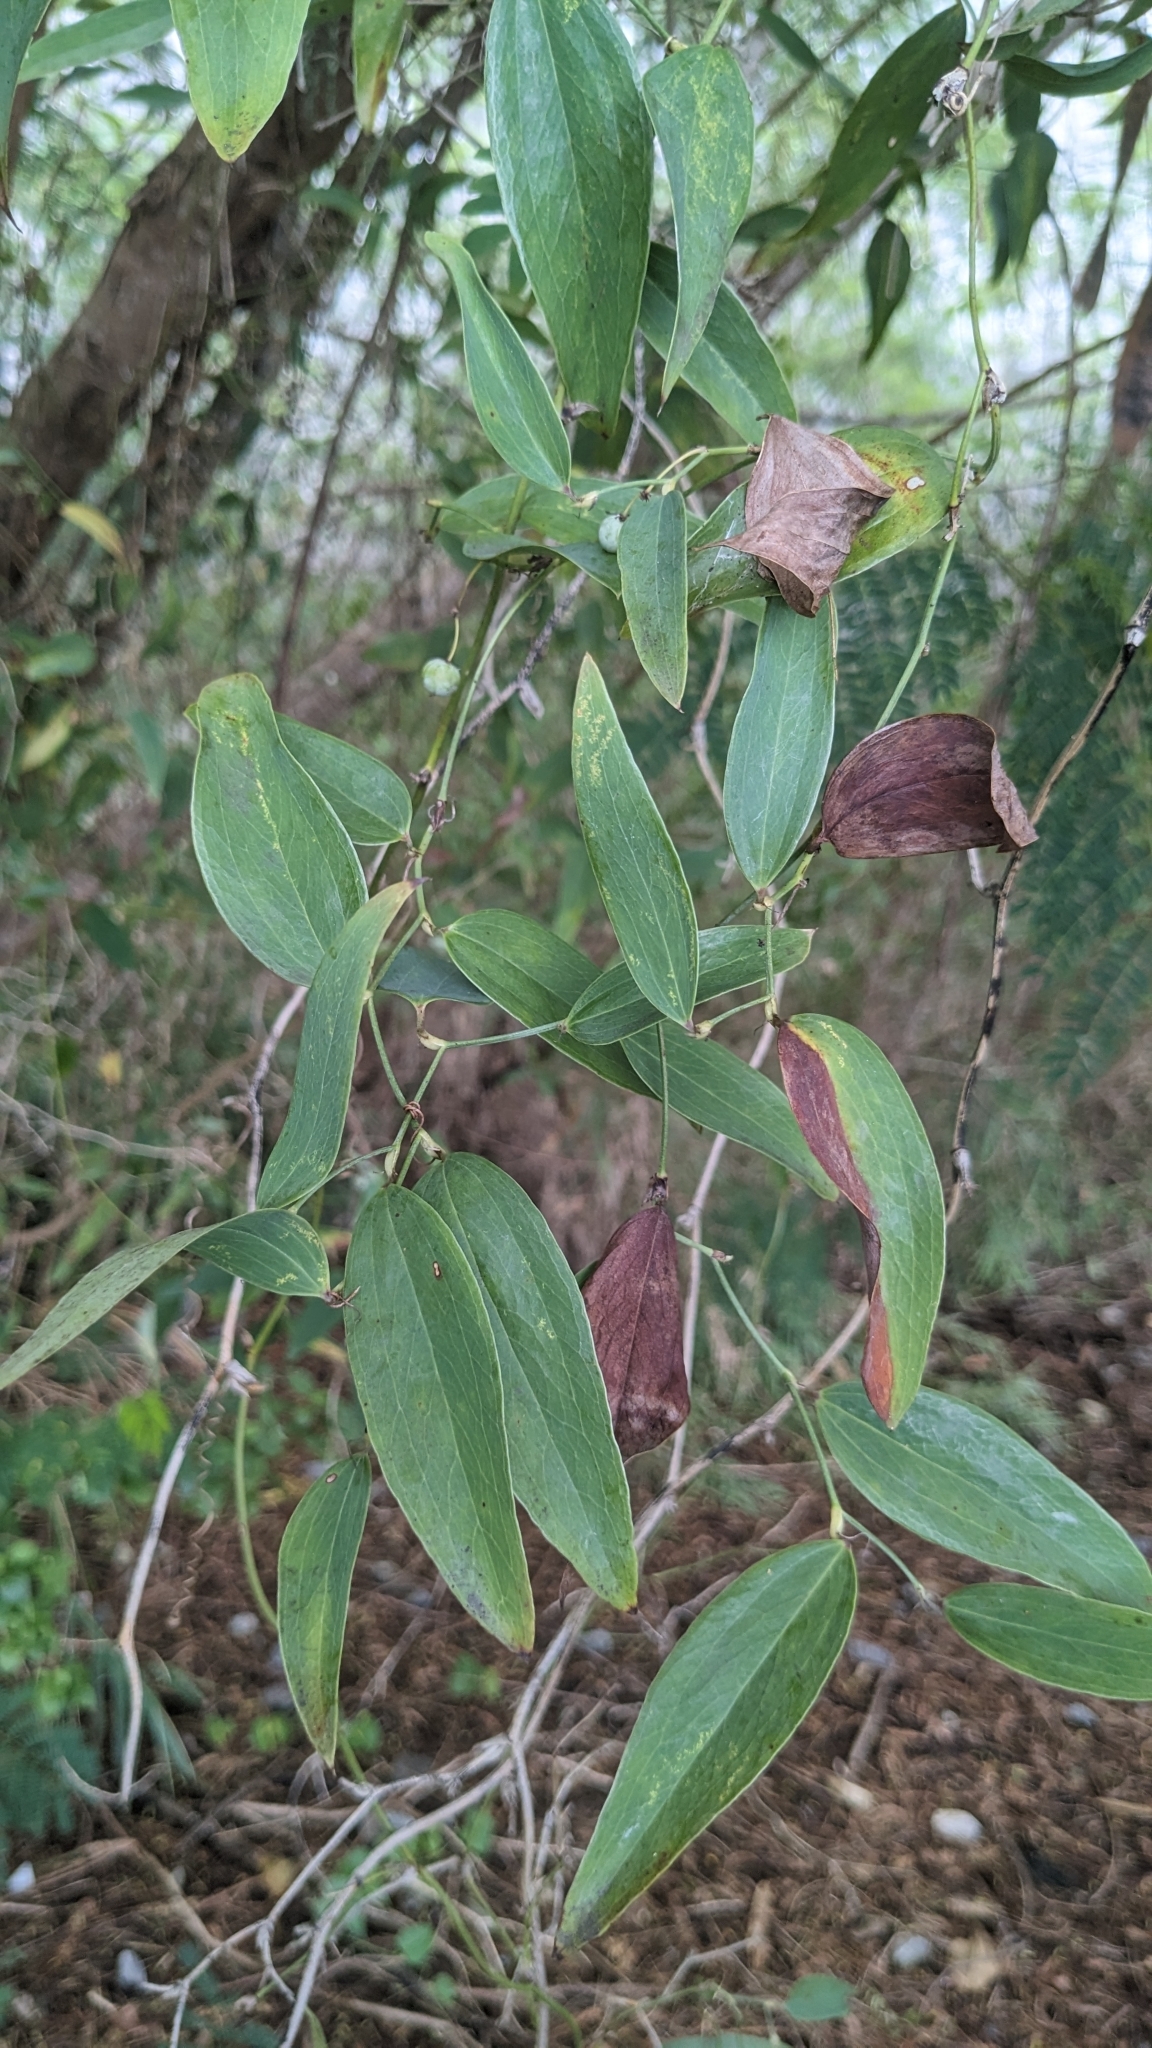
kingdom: Plantae
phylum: Tracheophyta
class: Liliopsida
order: Liliales
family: Smilacaceae
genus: Smilax
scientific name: Smilax glabra
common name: Chinese smilax
